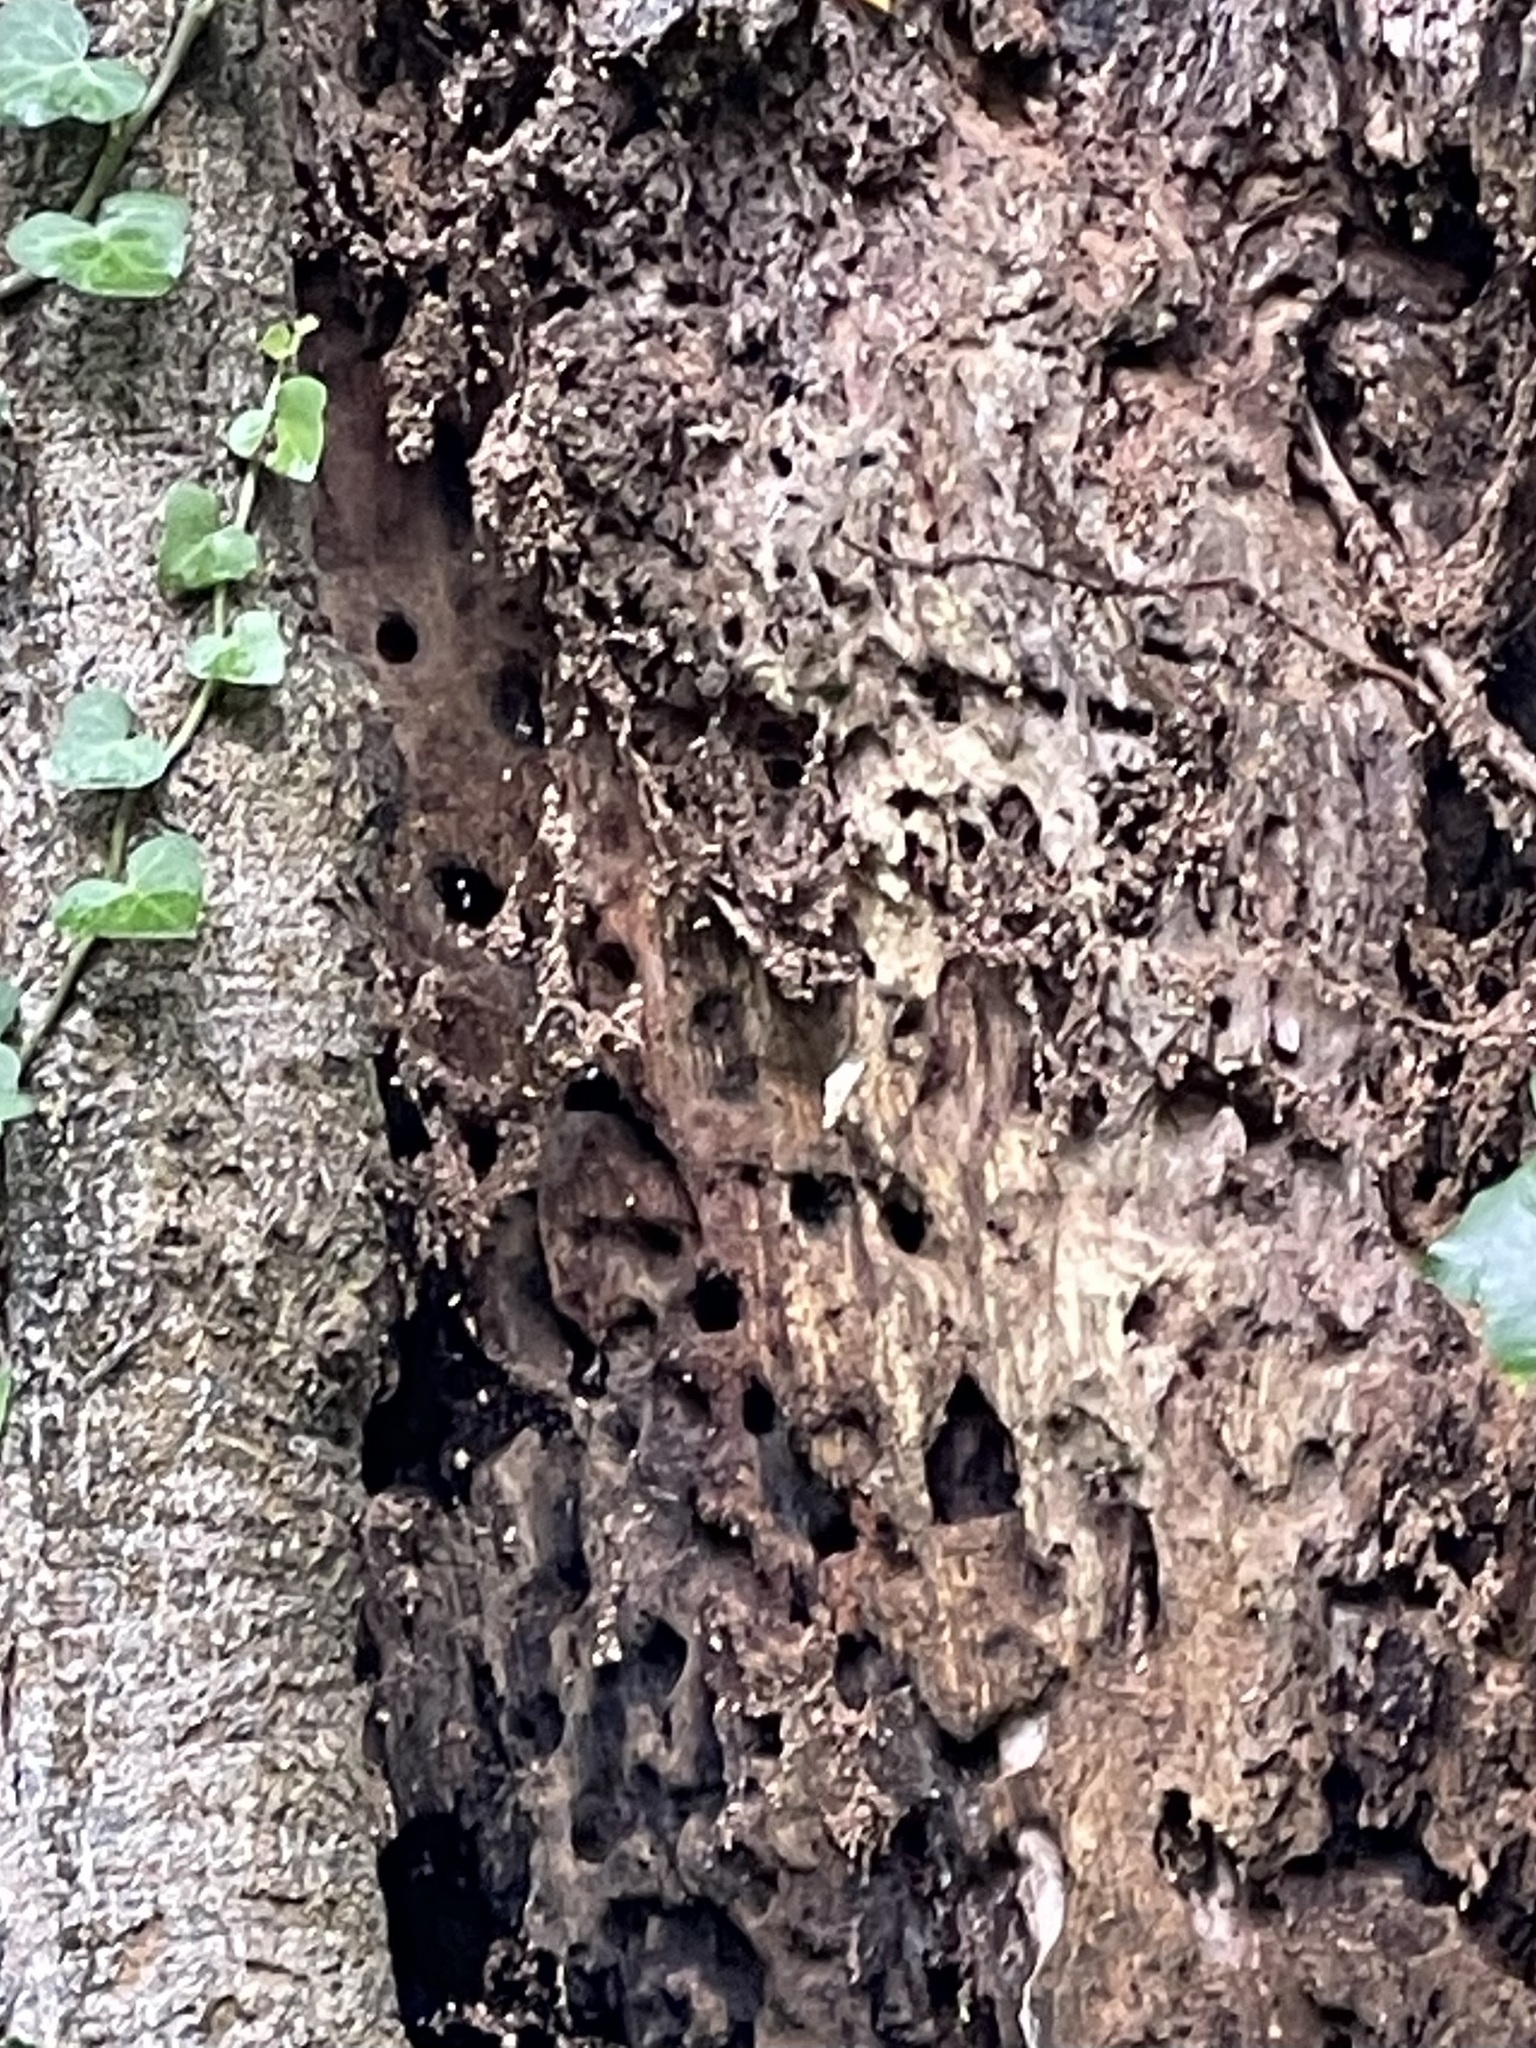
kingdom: Animalia
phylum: Arthropoda
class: Insecta
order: Hymenoptera
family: Vespidae
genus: Vespa
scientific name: Vespa crabro
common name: Hornet
